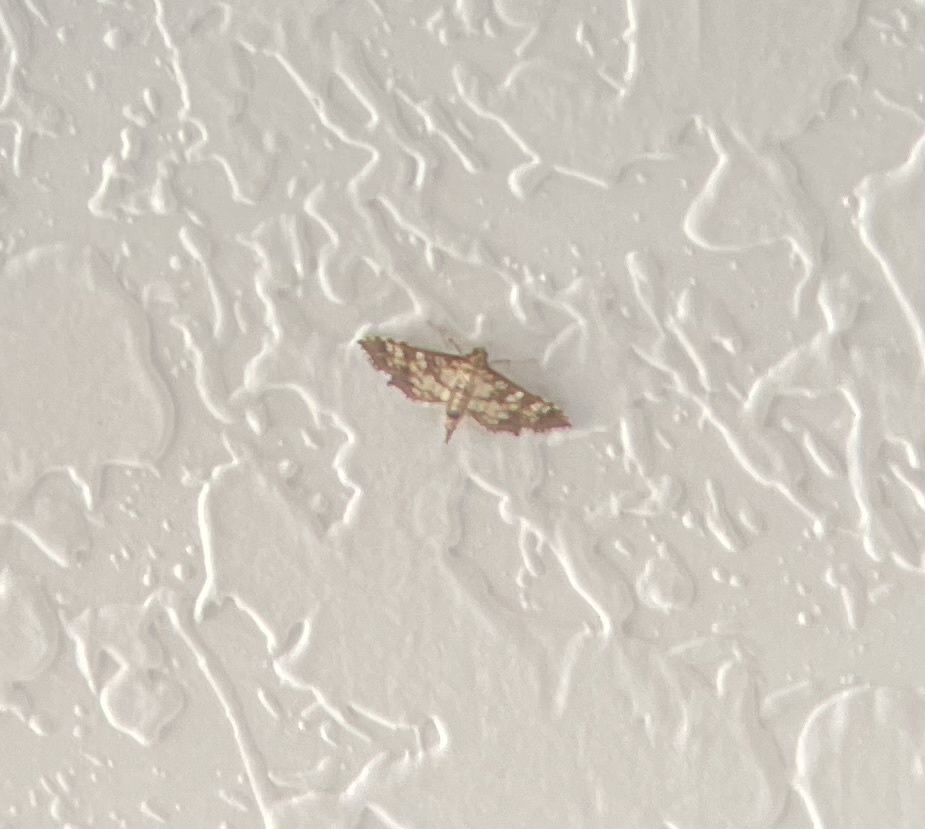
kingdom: Animalia
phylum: Arthropoda
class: Insecta
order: Lepidoptera
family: Crambidae
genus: Samea
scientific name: Samea ecclesialis
